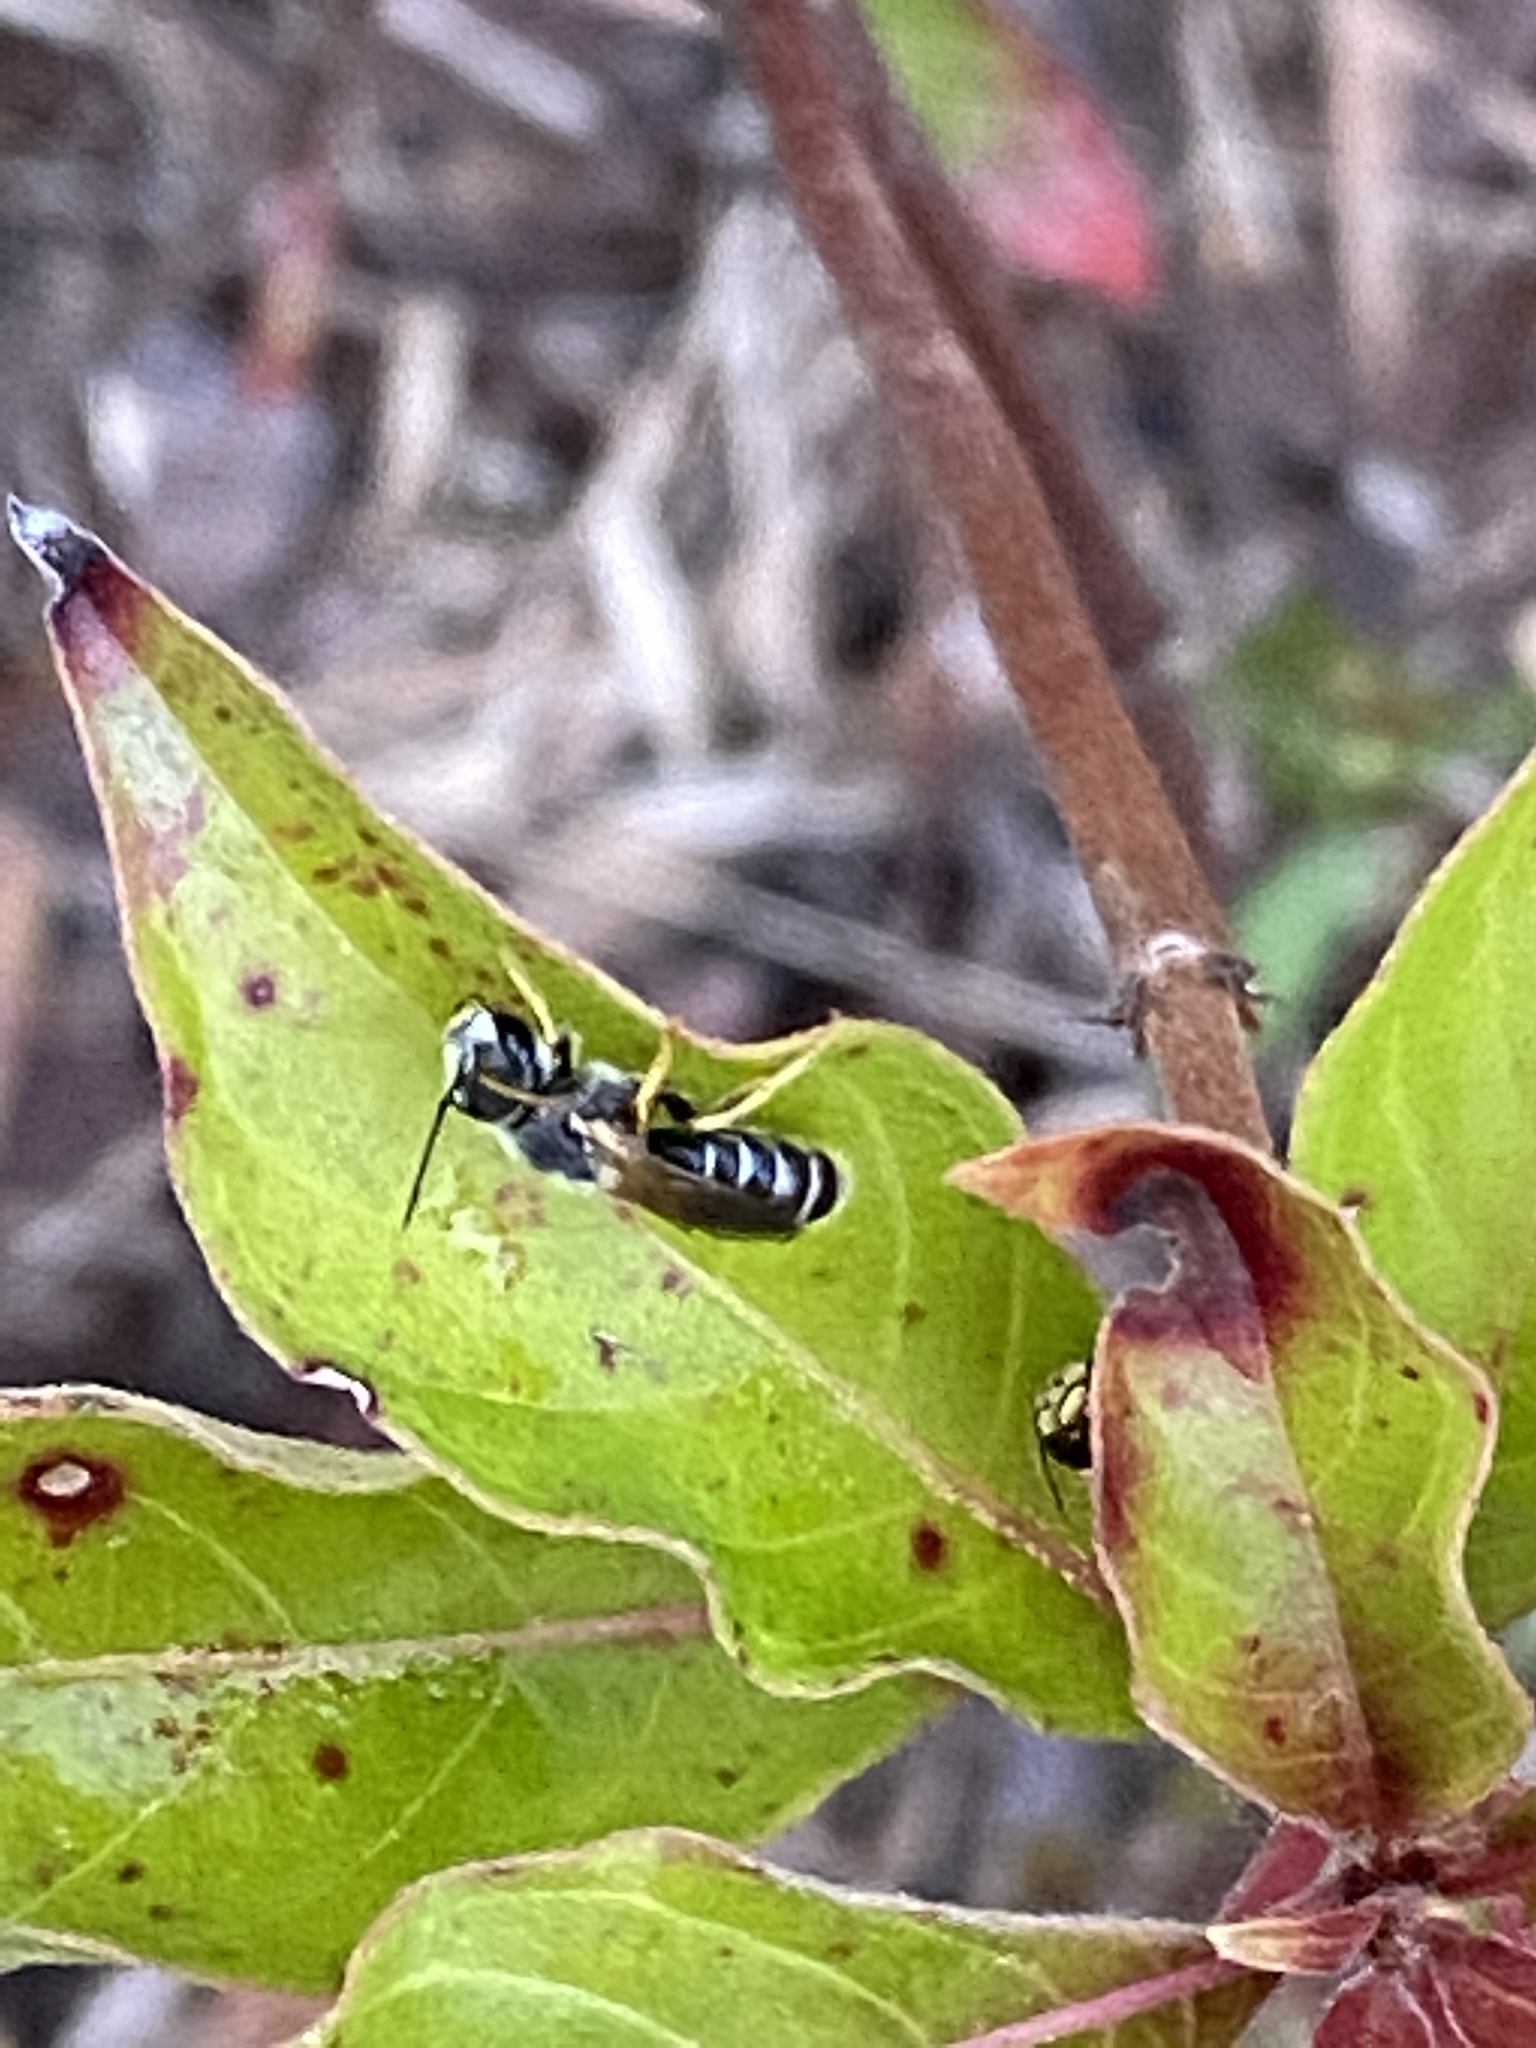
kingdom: Animalia
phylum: Arthropoda
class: Insecta
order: Hymenoptera
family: Halictidae
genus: Halictus
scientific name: Halictus poeyi
